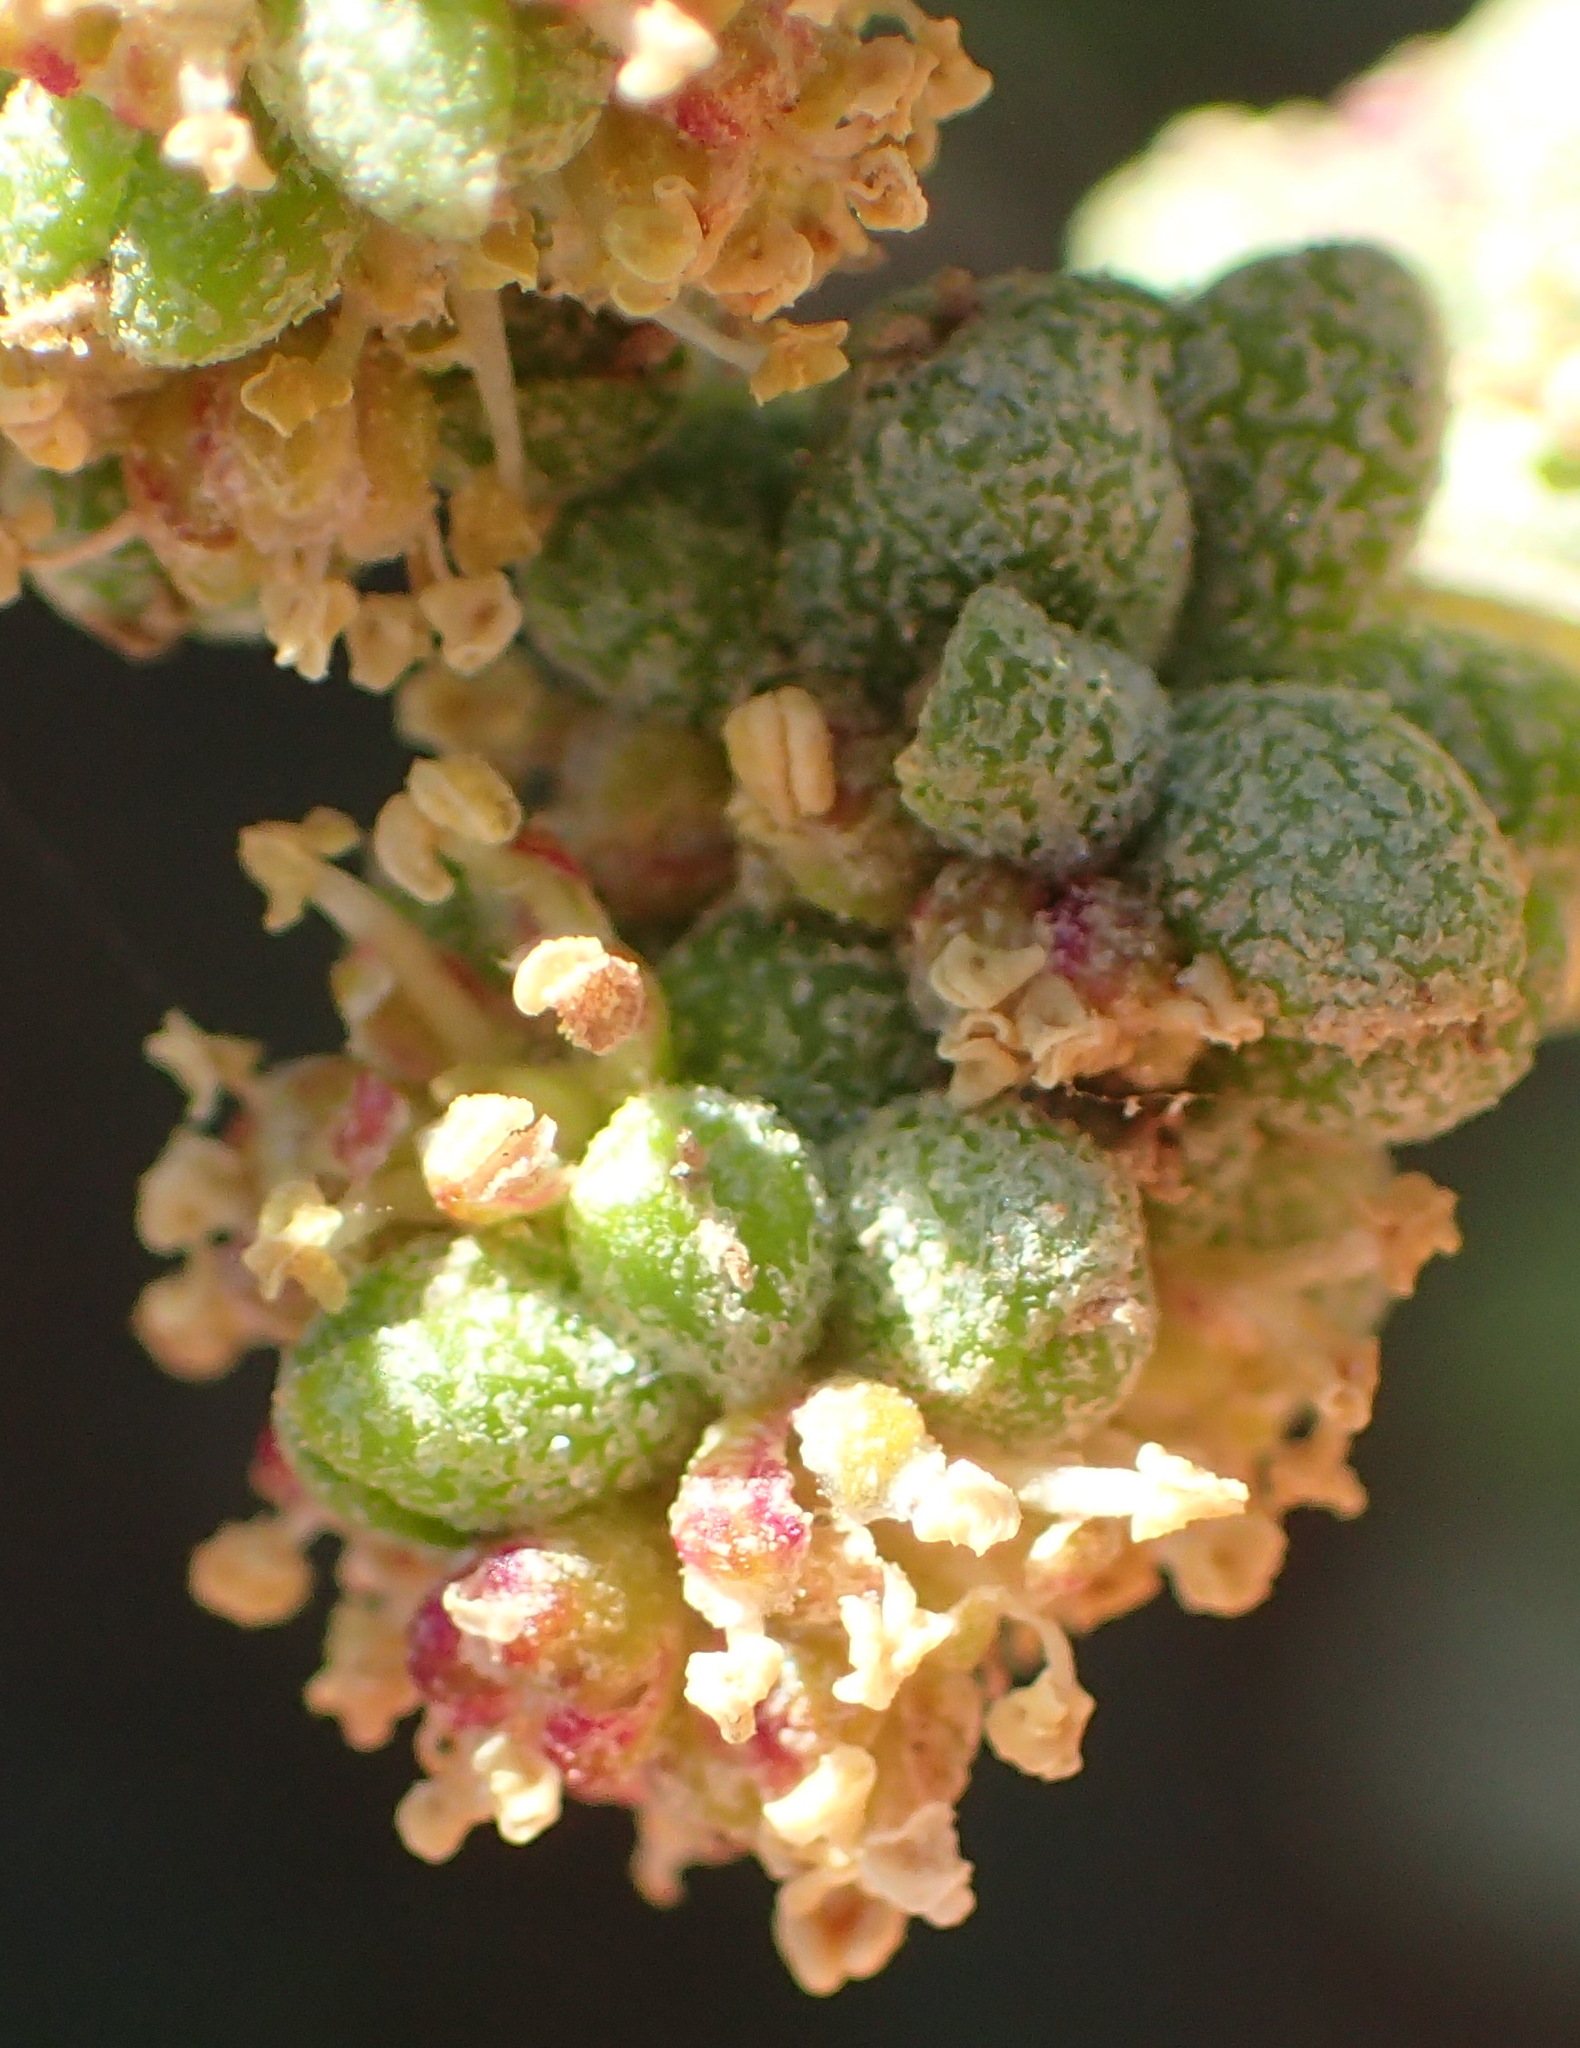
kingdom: Plantae
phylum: Tracheophyta
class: Magnoliopsida
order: Caryophyllales
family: Amaranthaceae
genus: Exomis
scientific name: Exomis albicans
